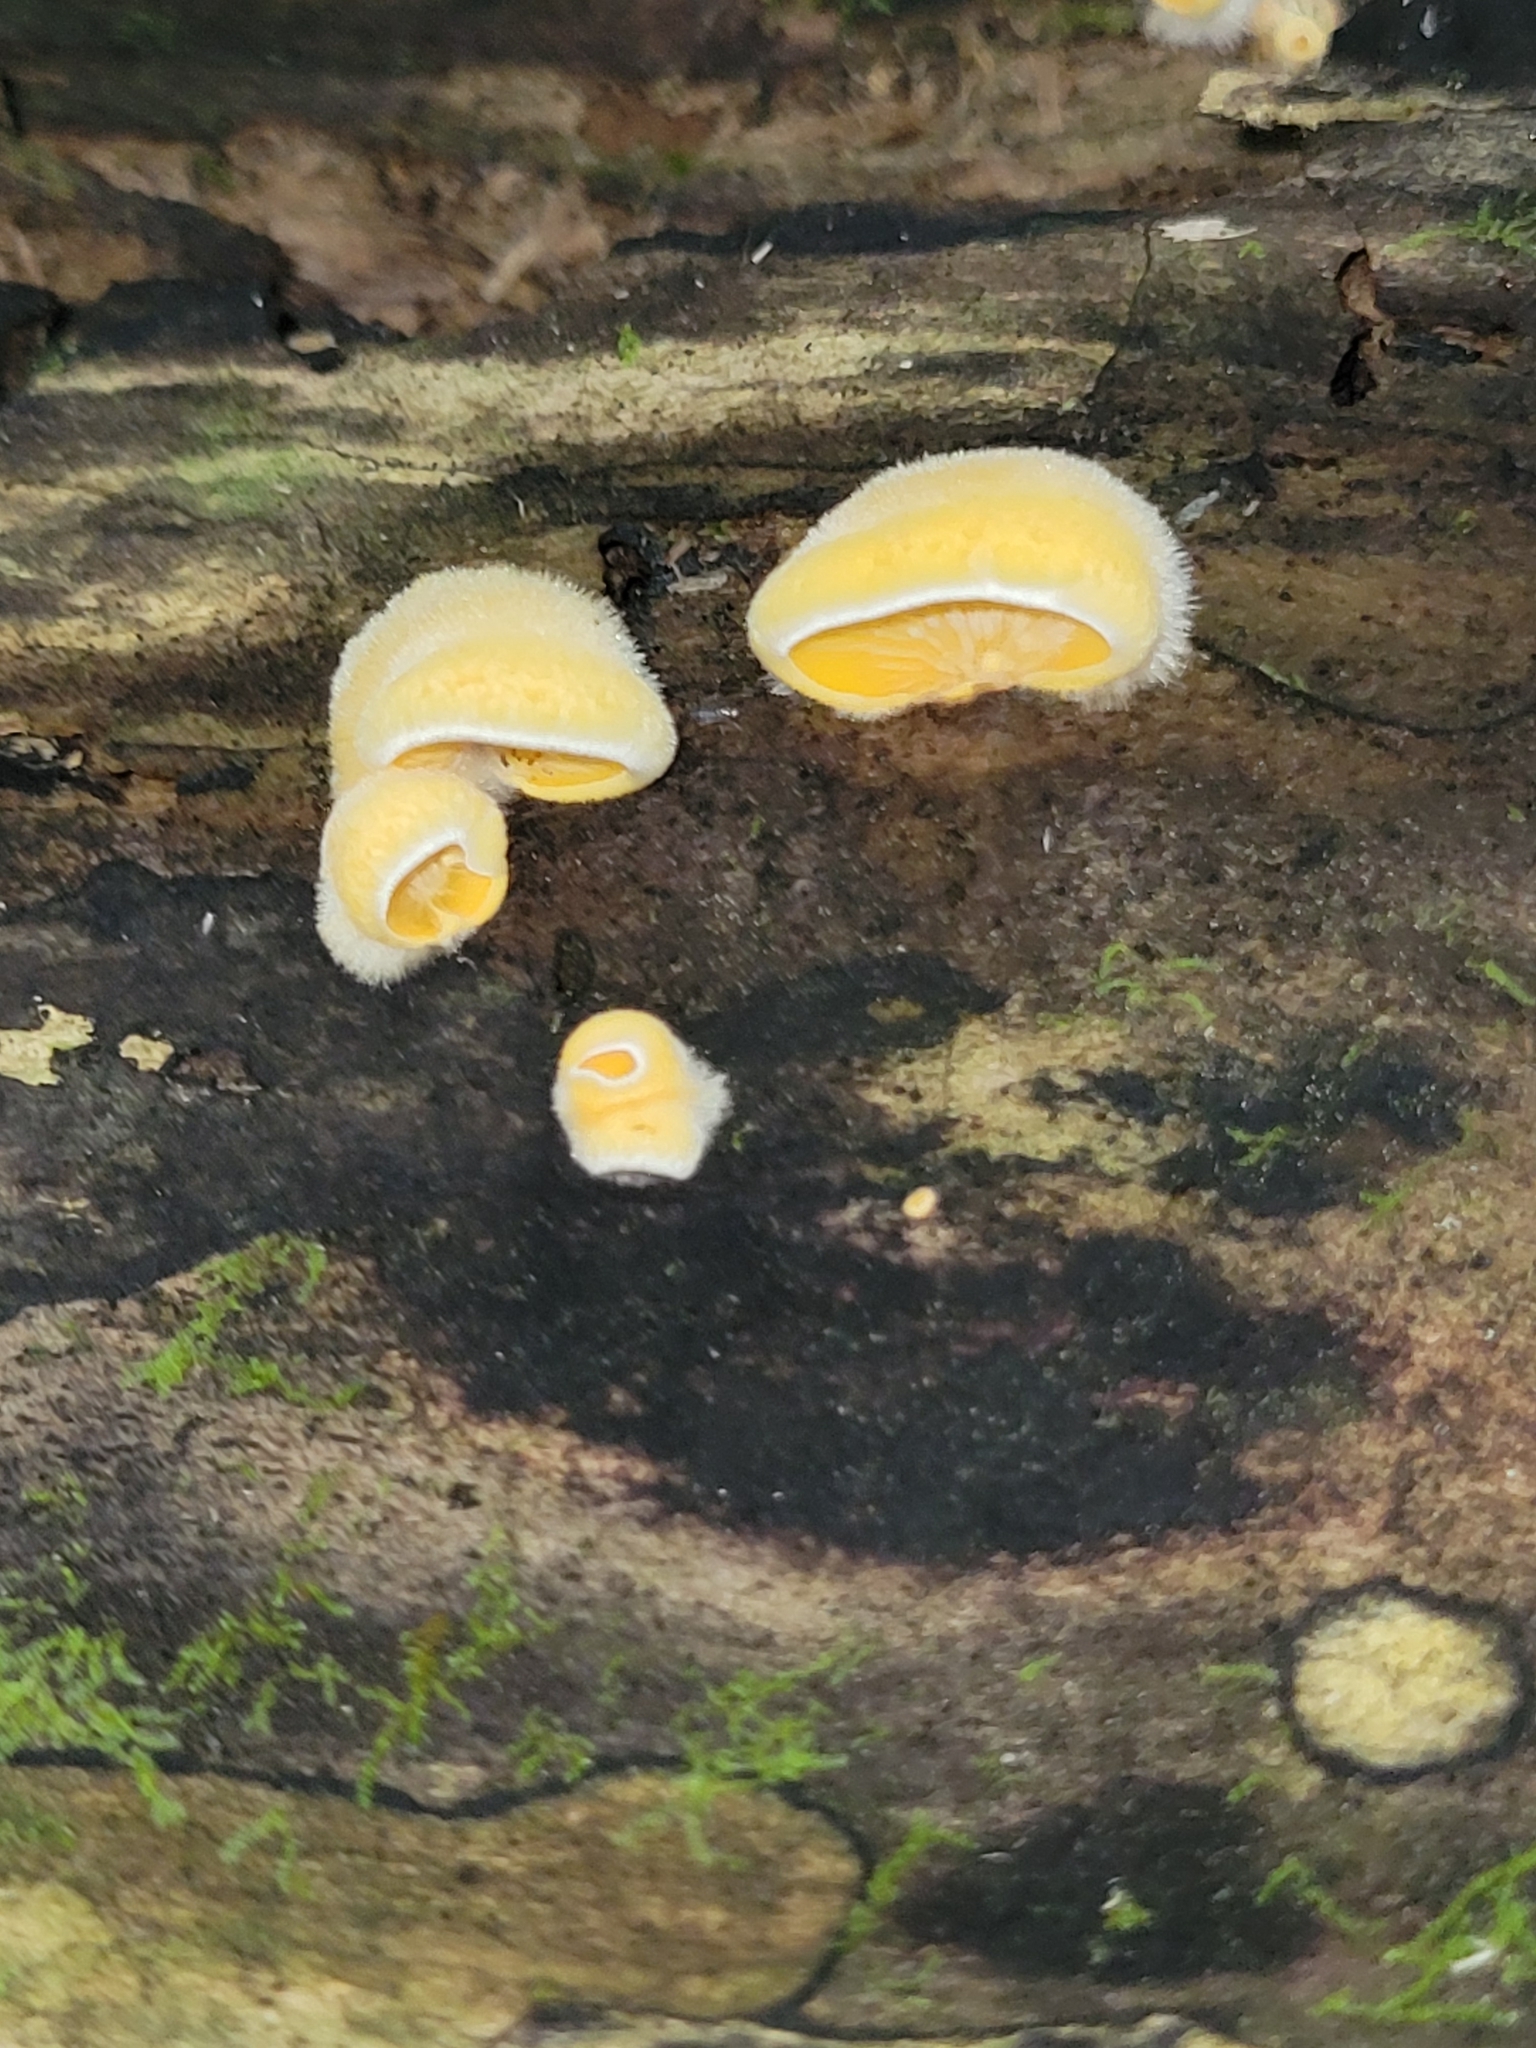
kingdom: Fungi
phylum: Basidiomycota
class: Agaricomycetes
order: Agaricales
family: Phyllotopsidaceae
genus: Phyllotopsis
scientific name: Phyllotopsis nidulans
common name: Orange mock oyster
